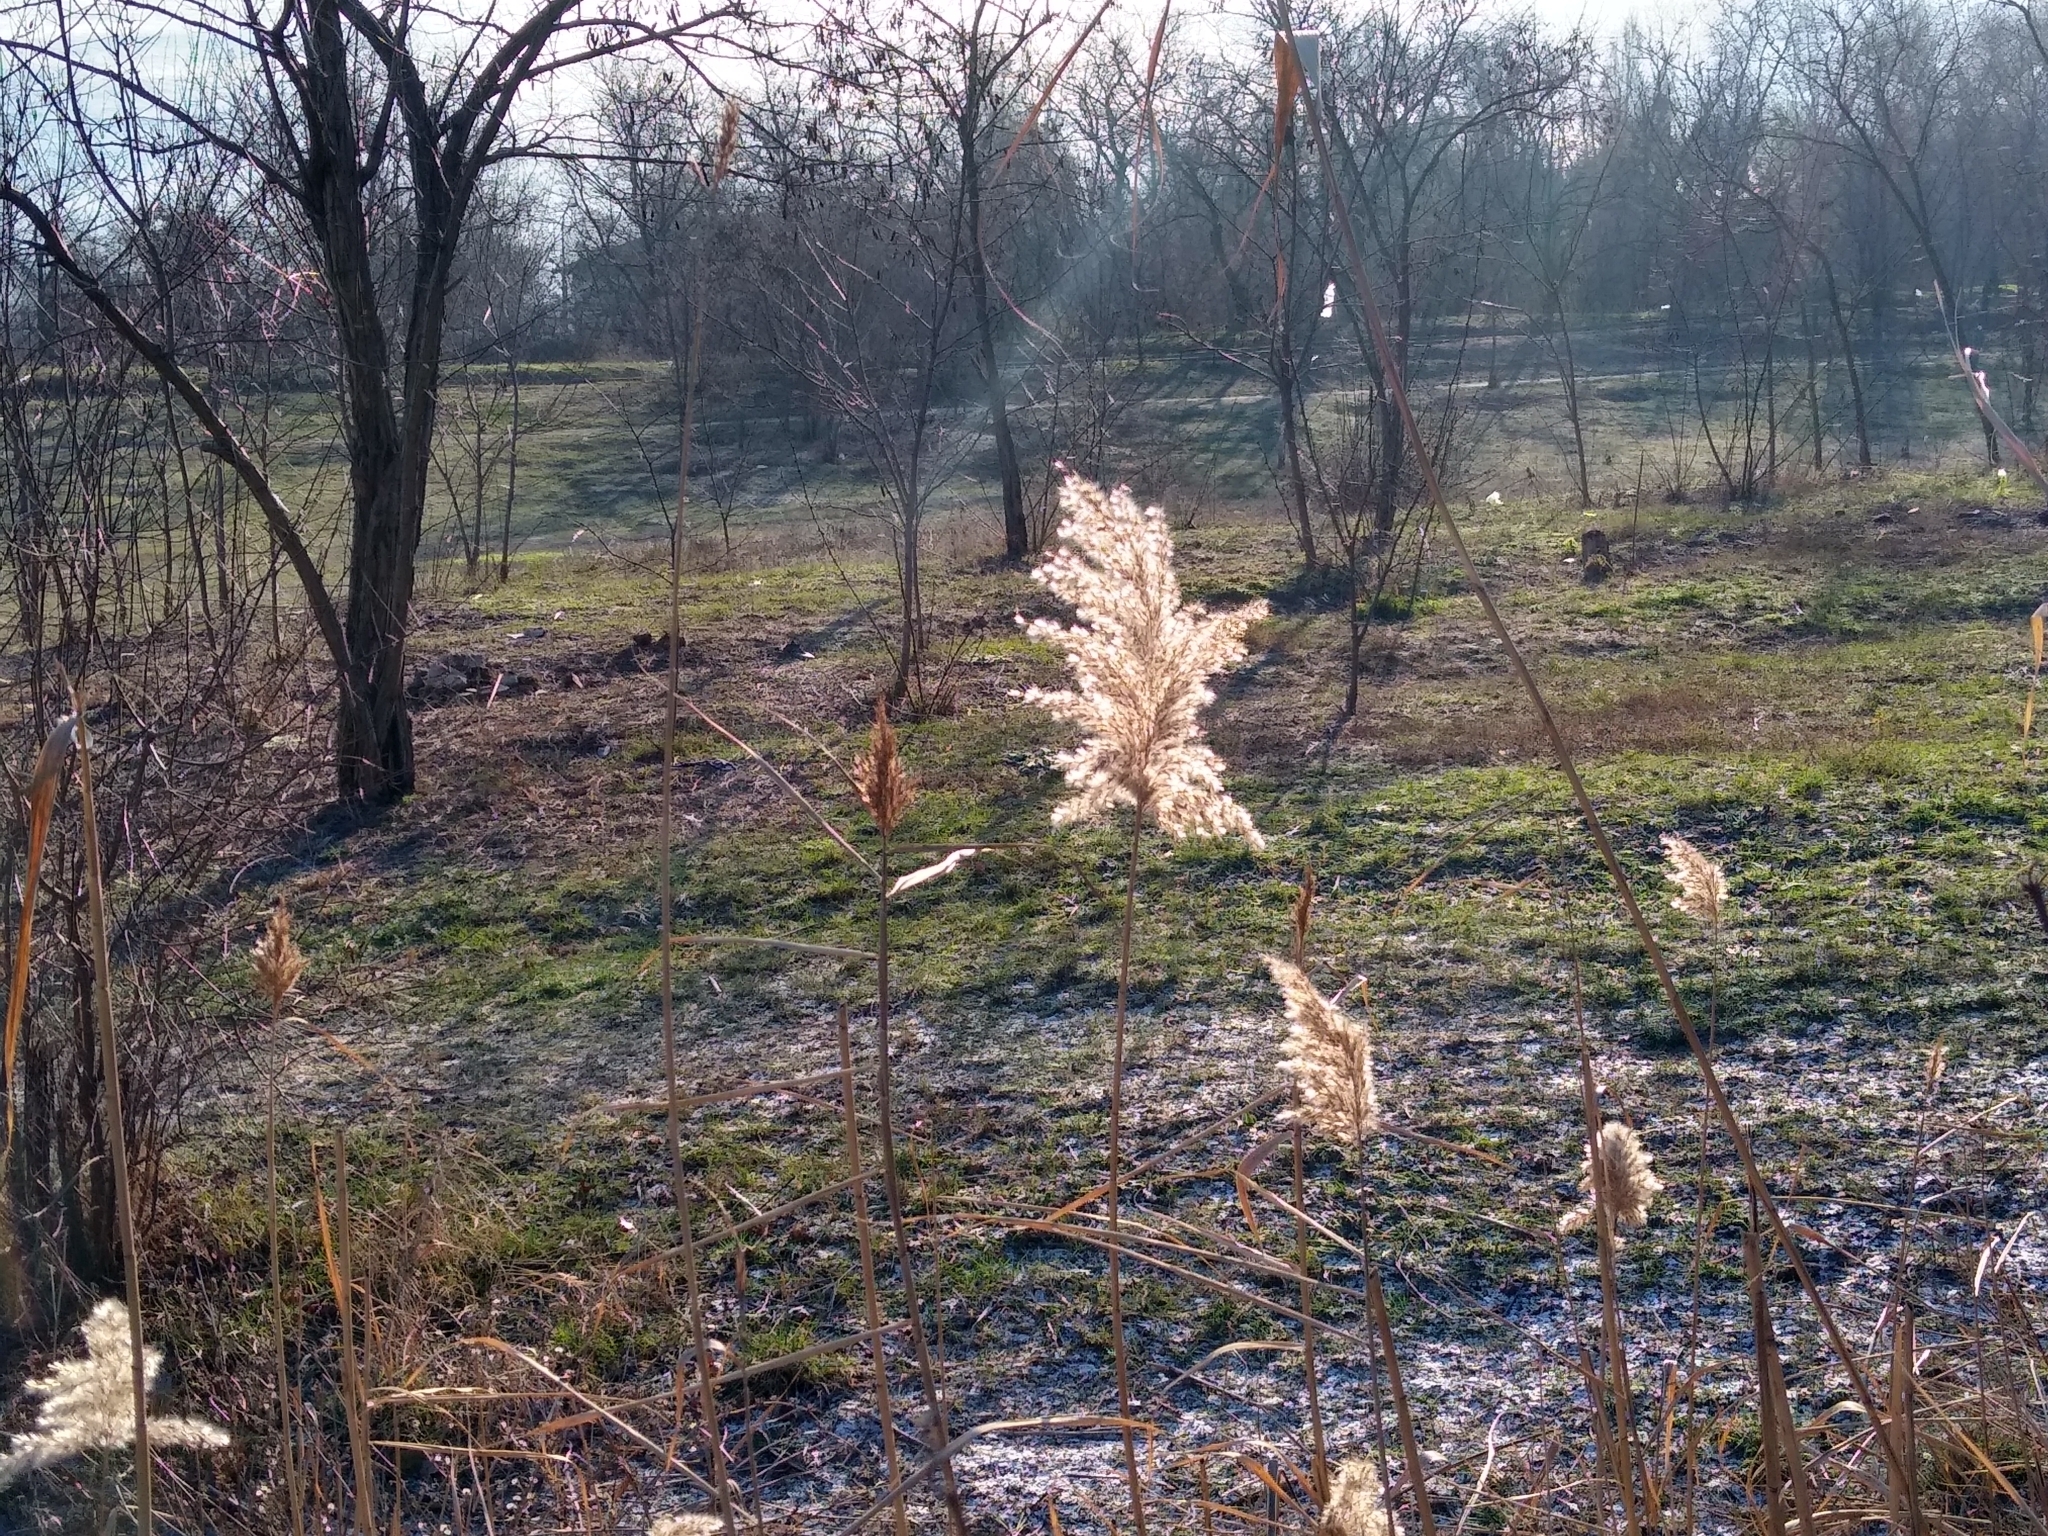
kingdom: Plantae
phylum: Tracheophyta
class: Liliopsida
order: Poales
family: Poaceae
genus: Phragmites
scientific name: Phragmites australis
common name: Common reed
